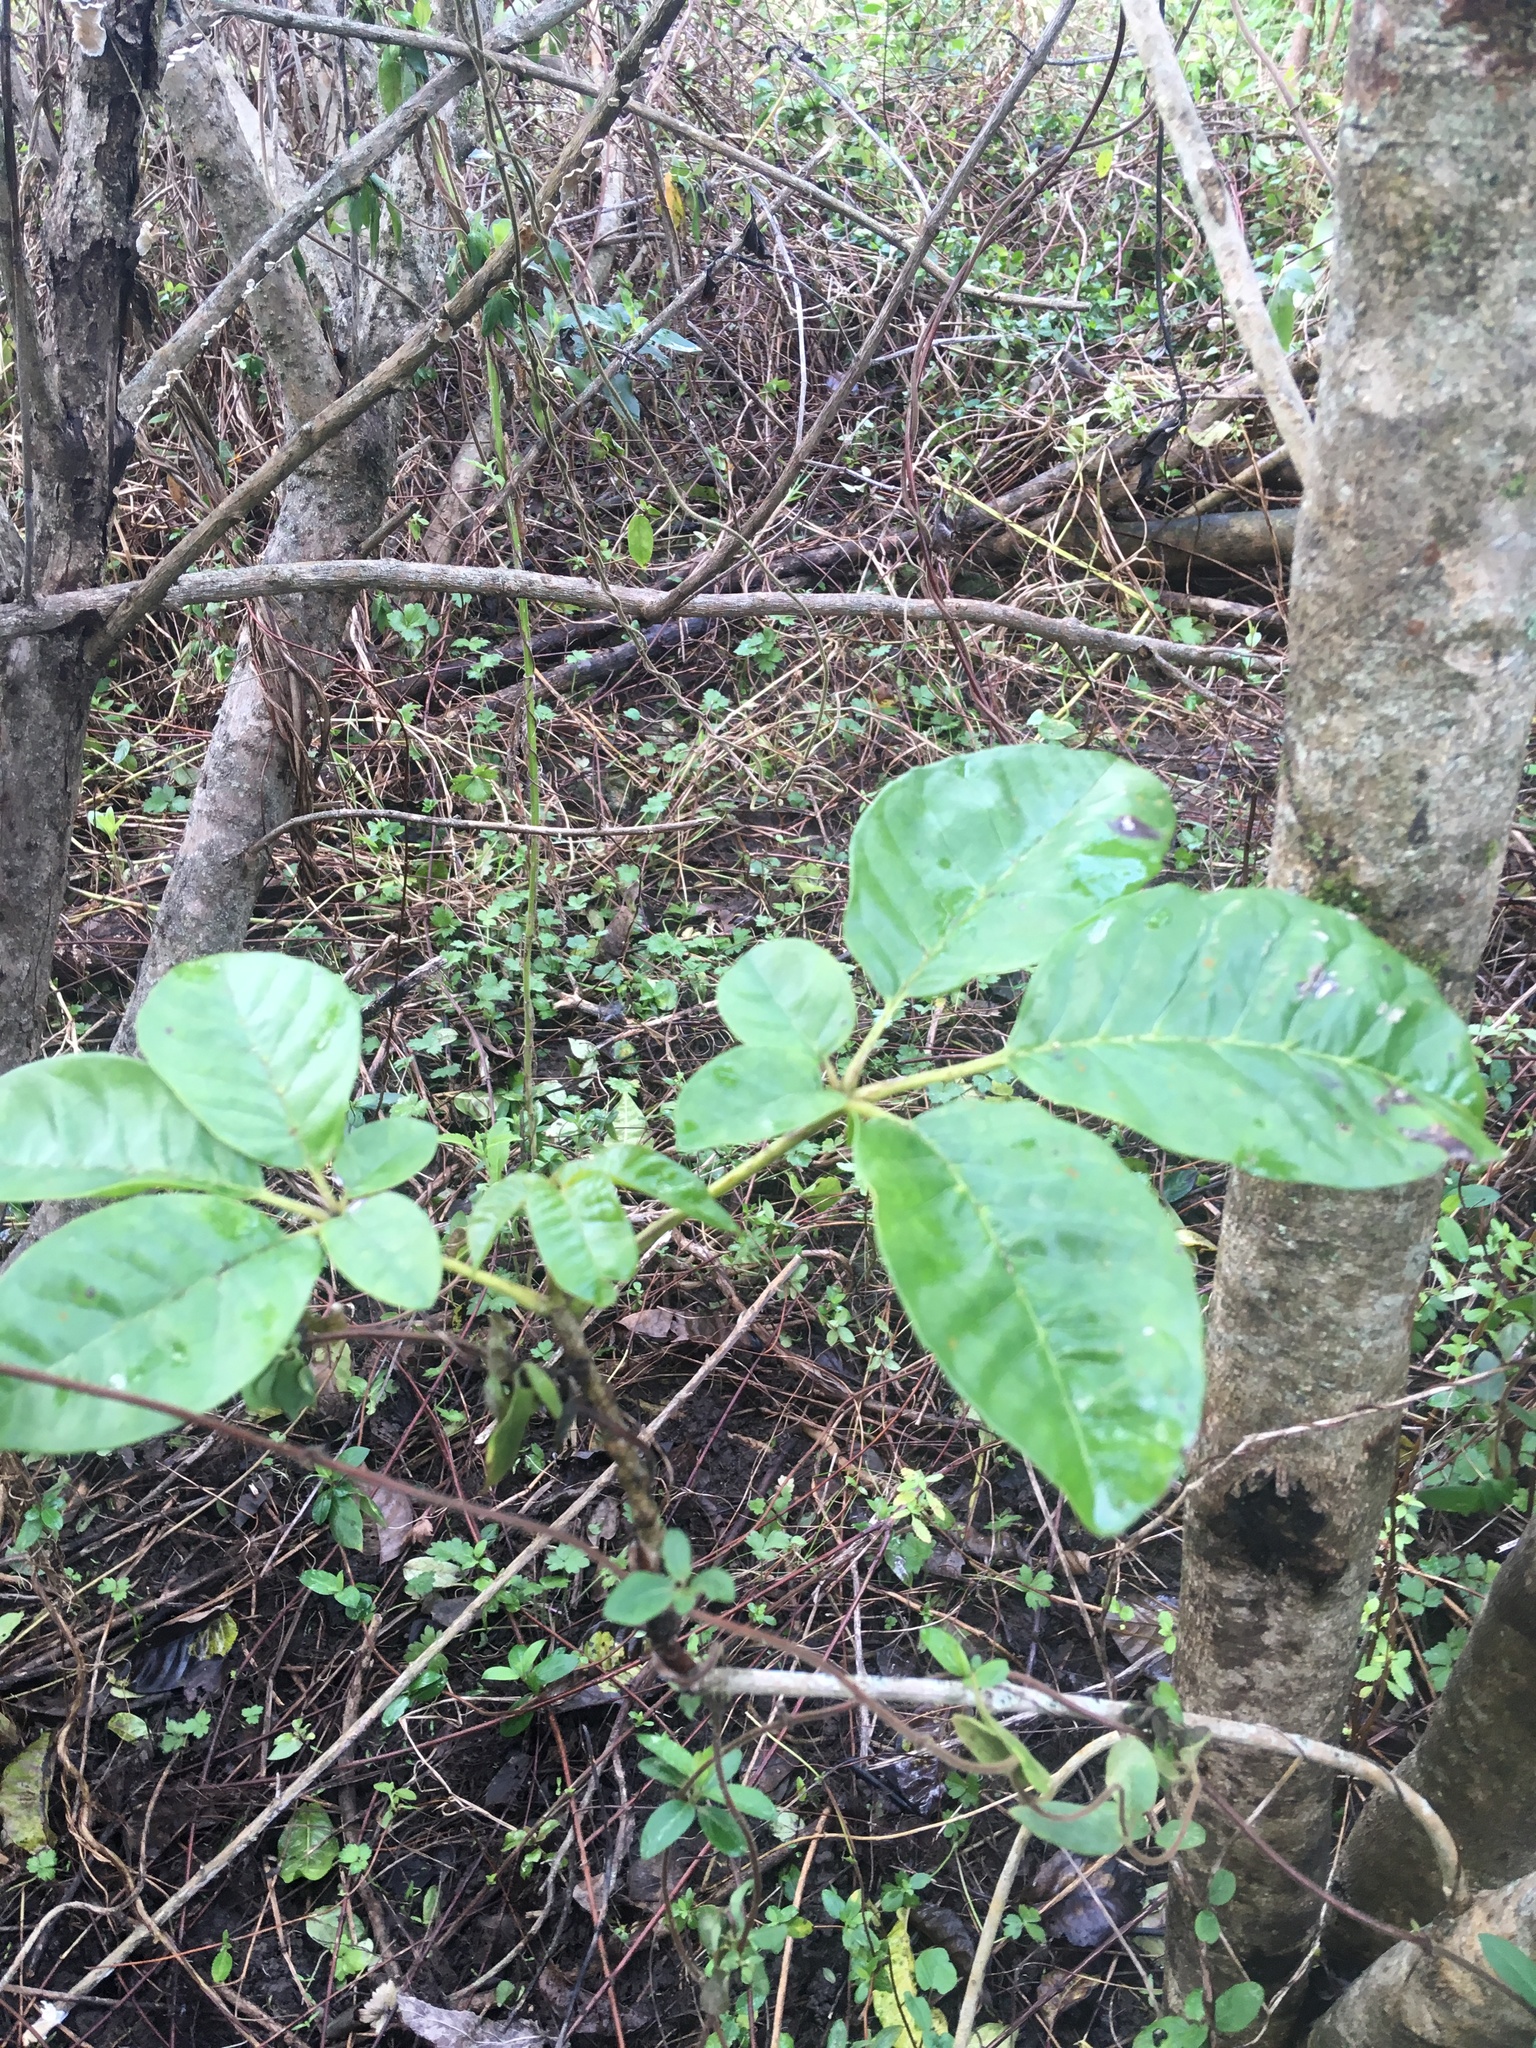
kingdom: Plantae
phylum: Tracheophyta
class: Magnoliopsida
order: Lamiales
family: Lamiaceae
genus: Vitex
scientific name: Vitex lucens
